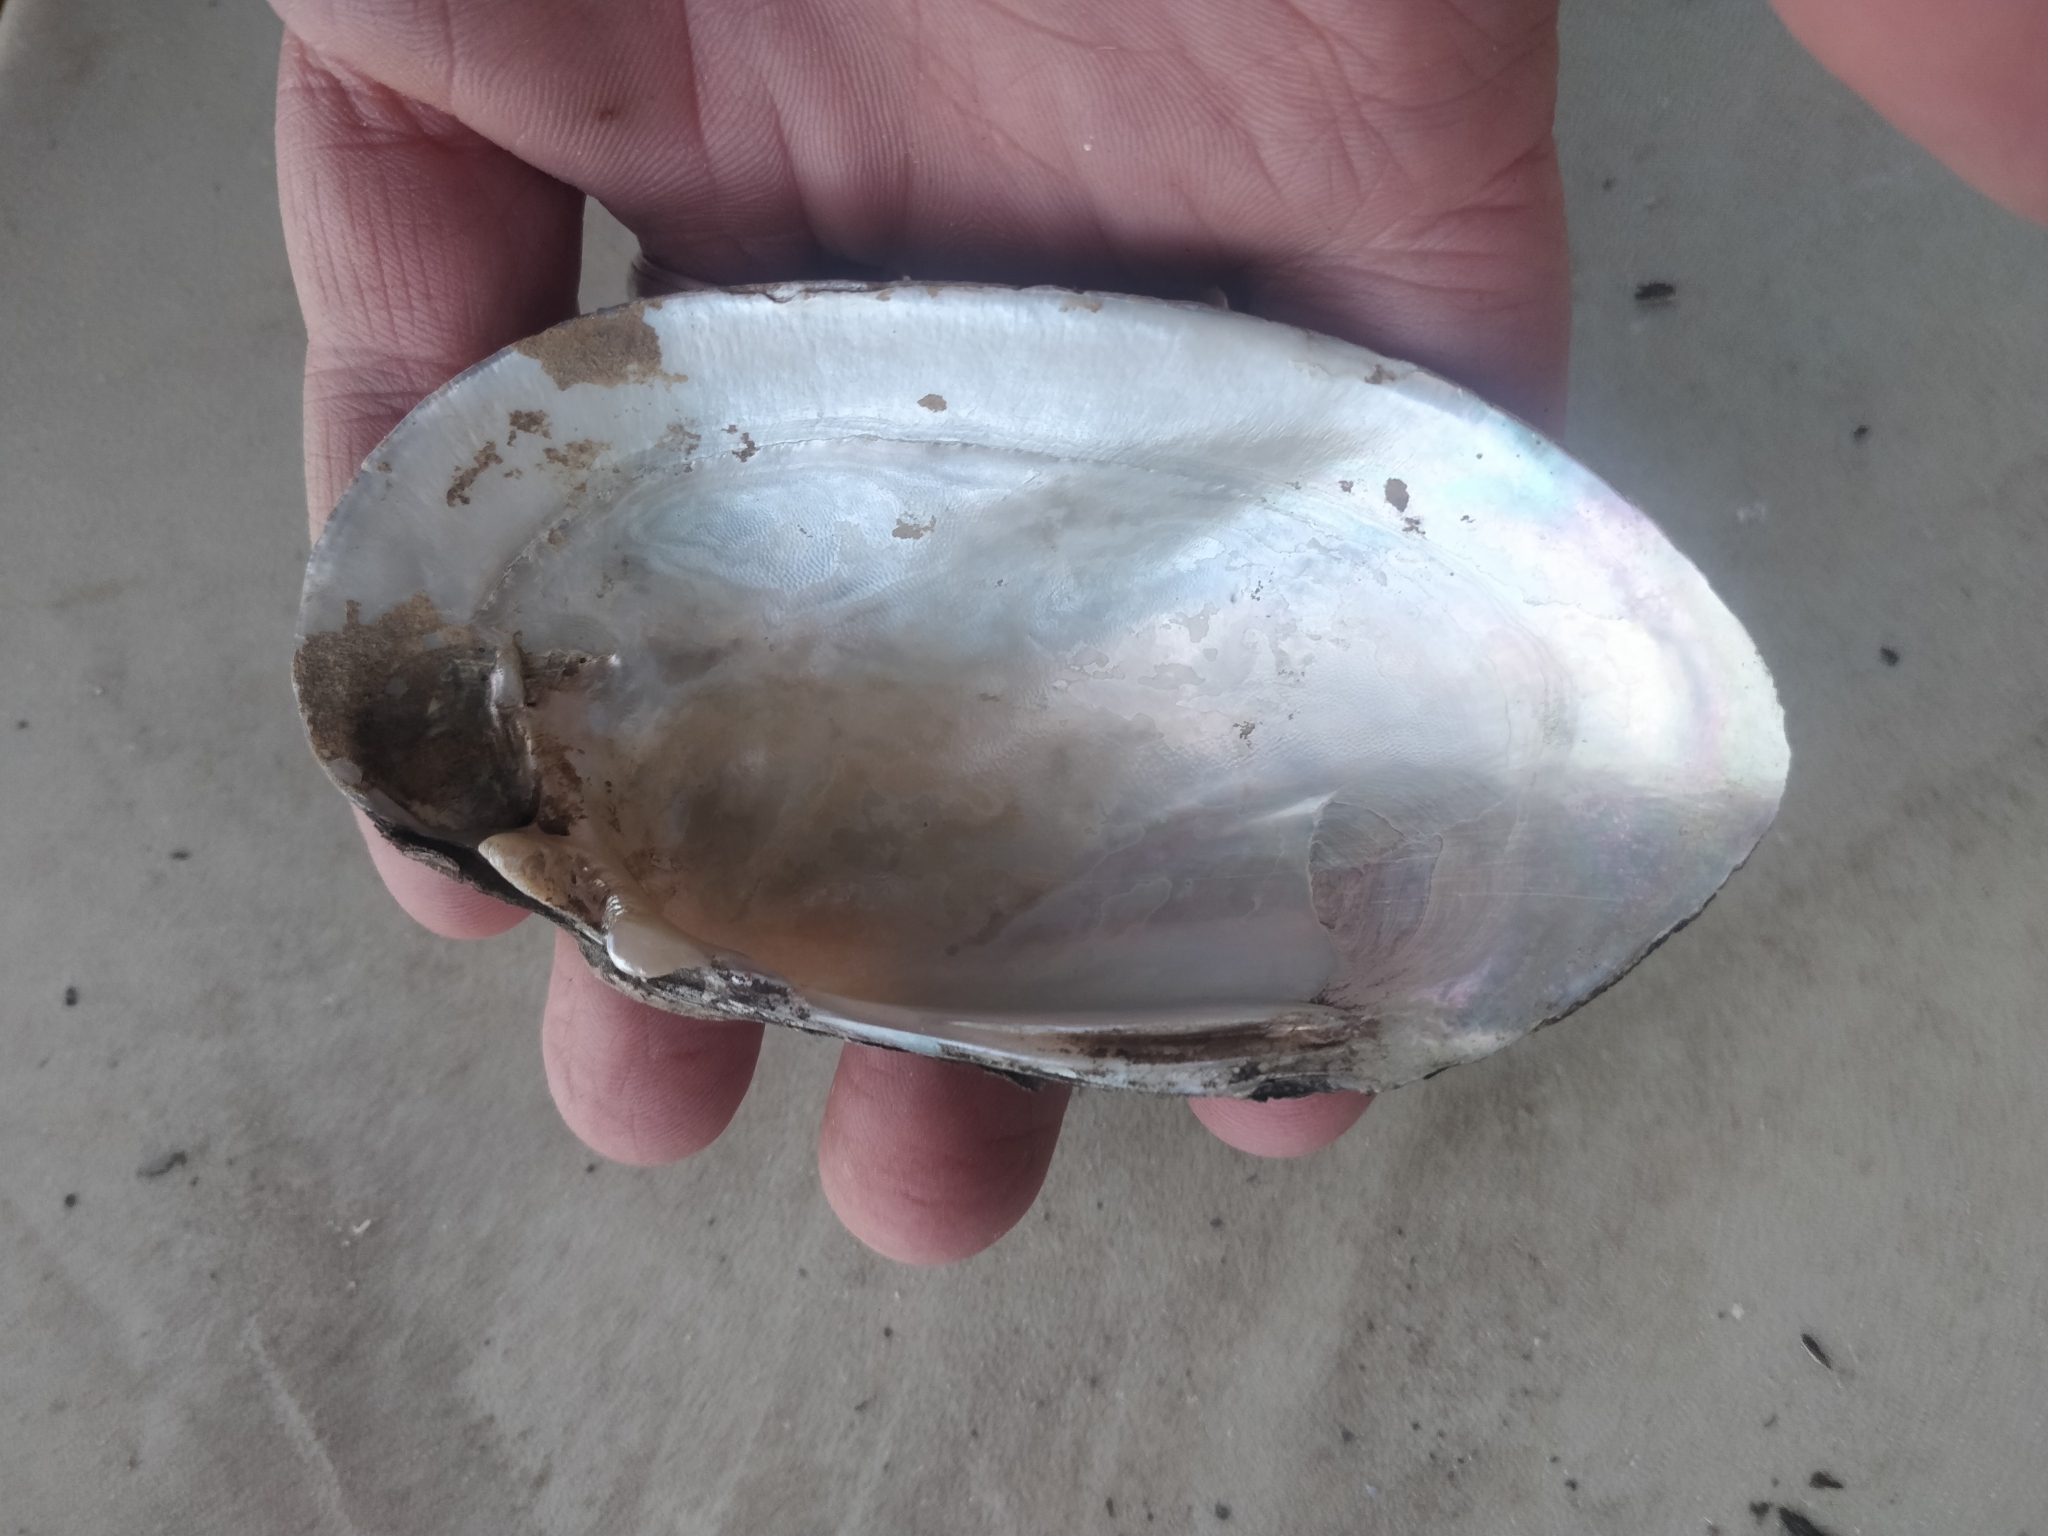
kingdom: Animalia
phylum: Mollusca
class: Bivalvia
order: Unionida
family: Unionidae
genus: Lampsilis
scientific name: Lampsilis siliquoidea
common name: Fatmucket
